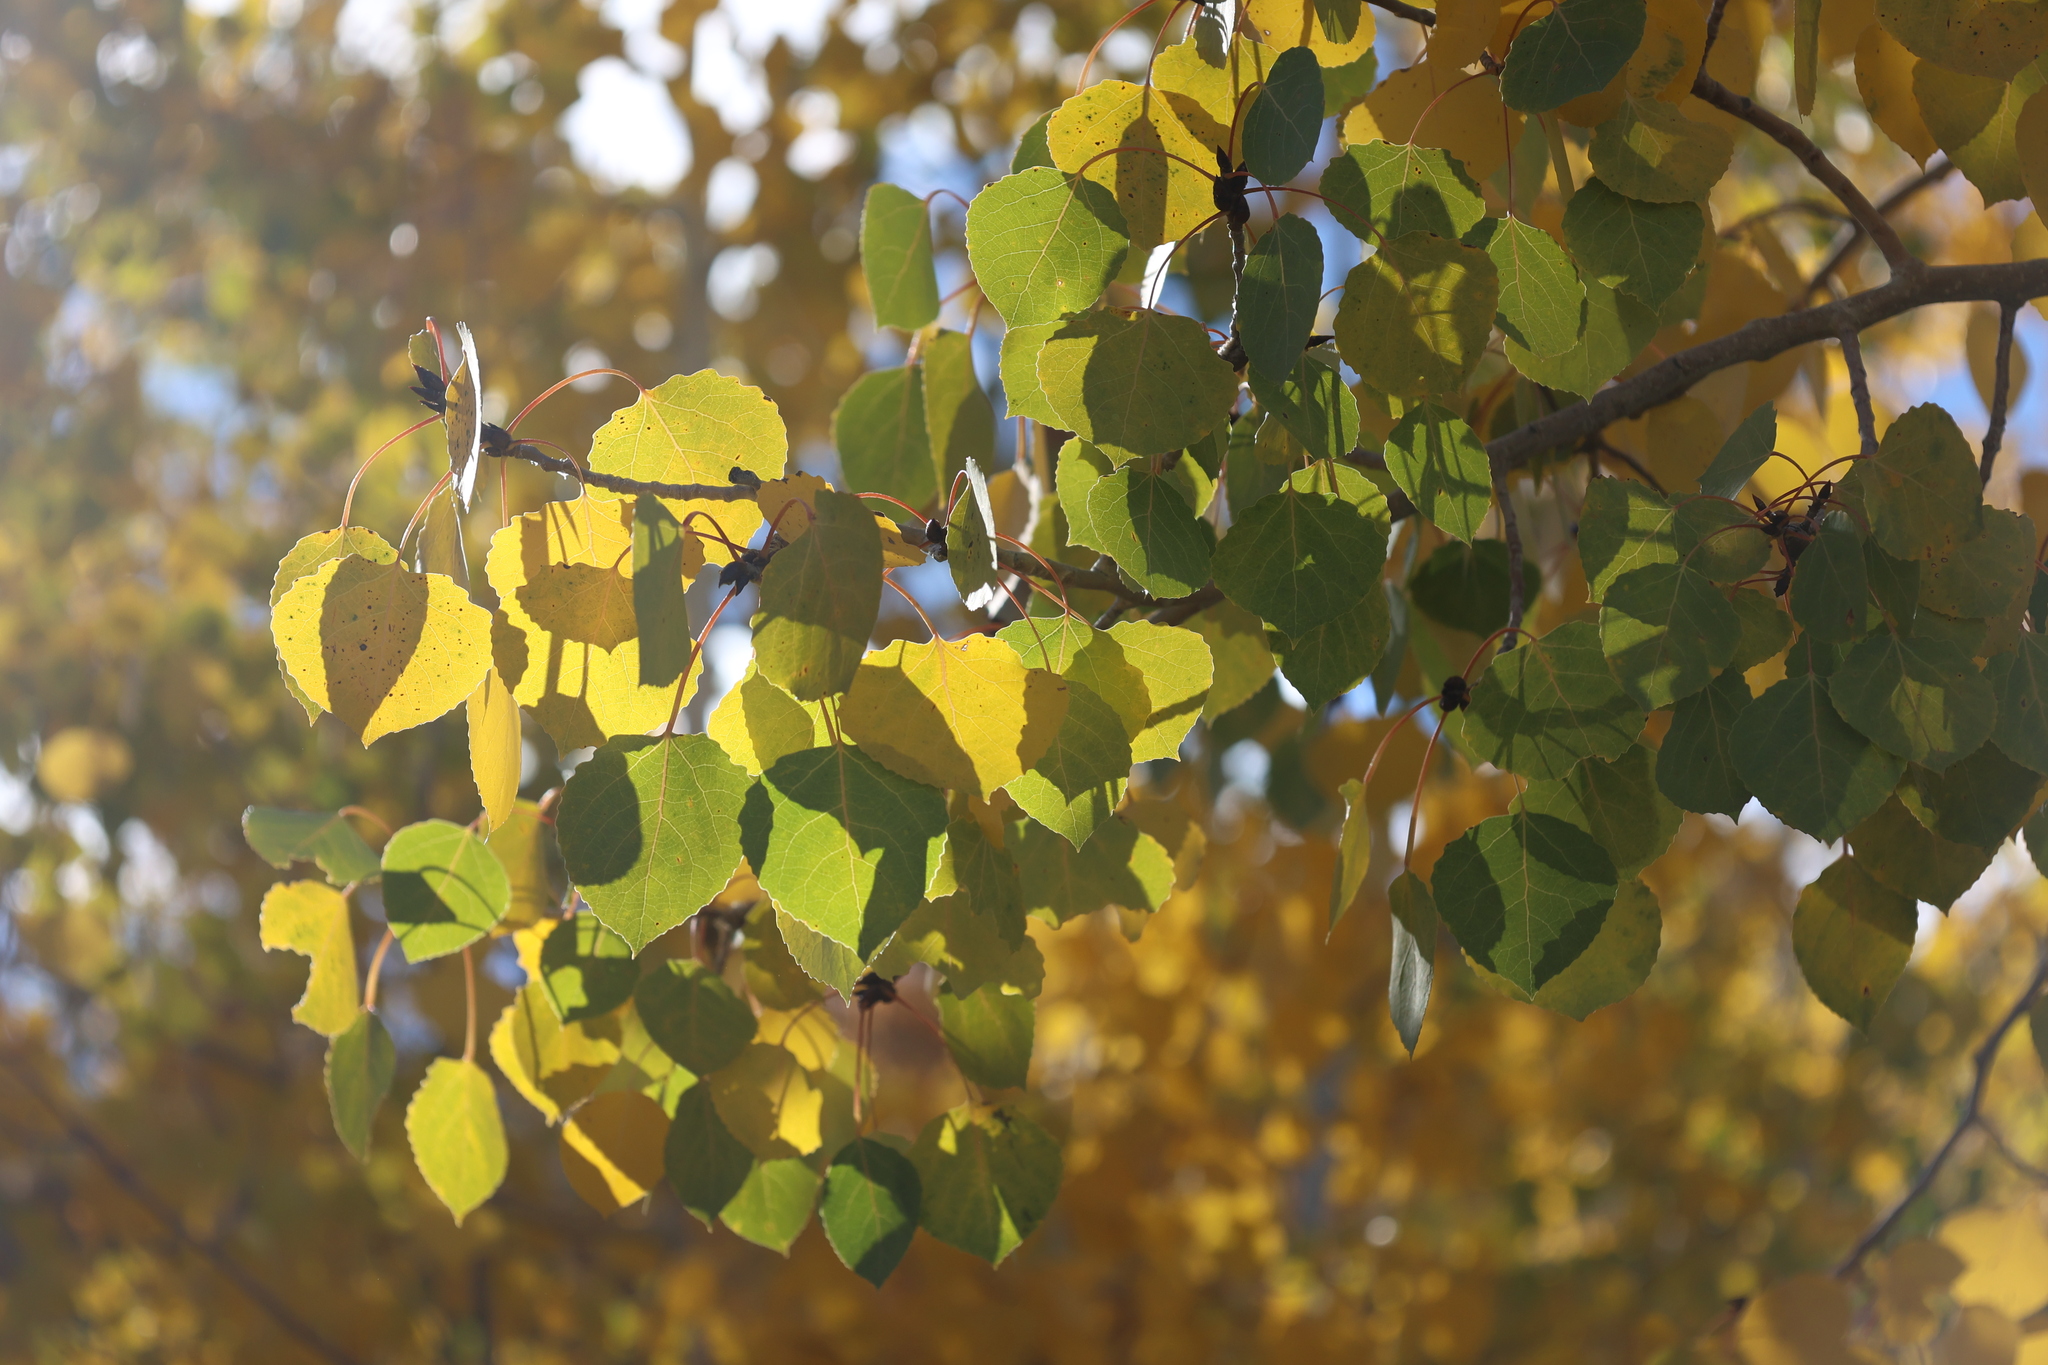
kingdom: Plantae
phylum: Tracheophyta
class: Magnoliopsida
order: Malpighiales
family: Salicaceae
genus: Populus
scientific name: Populus tremuloides
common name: Quaking aspen
